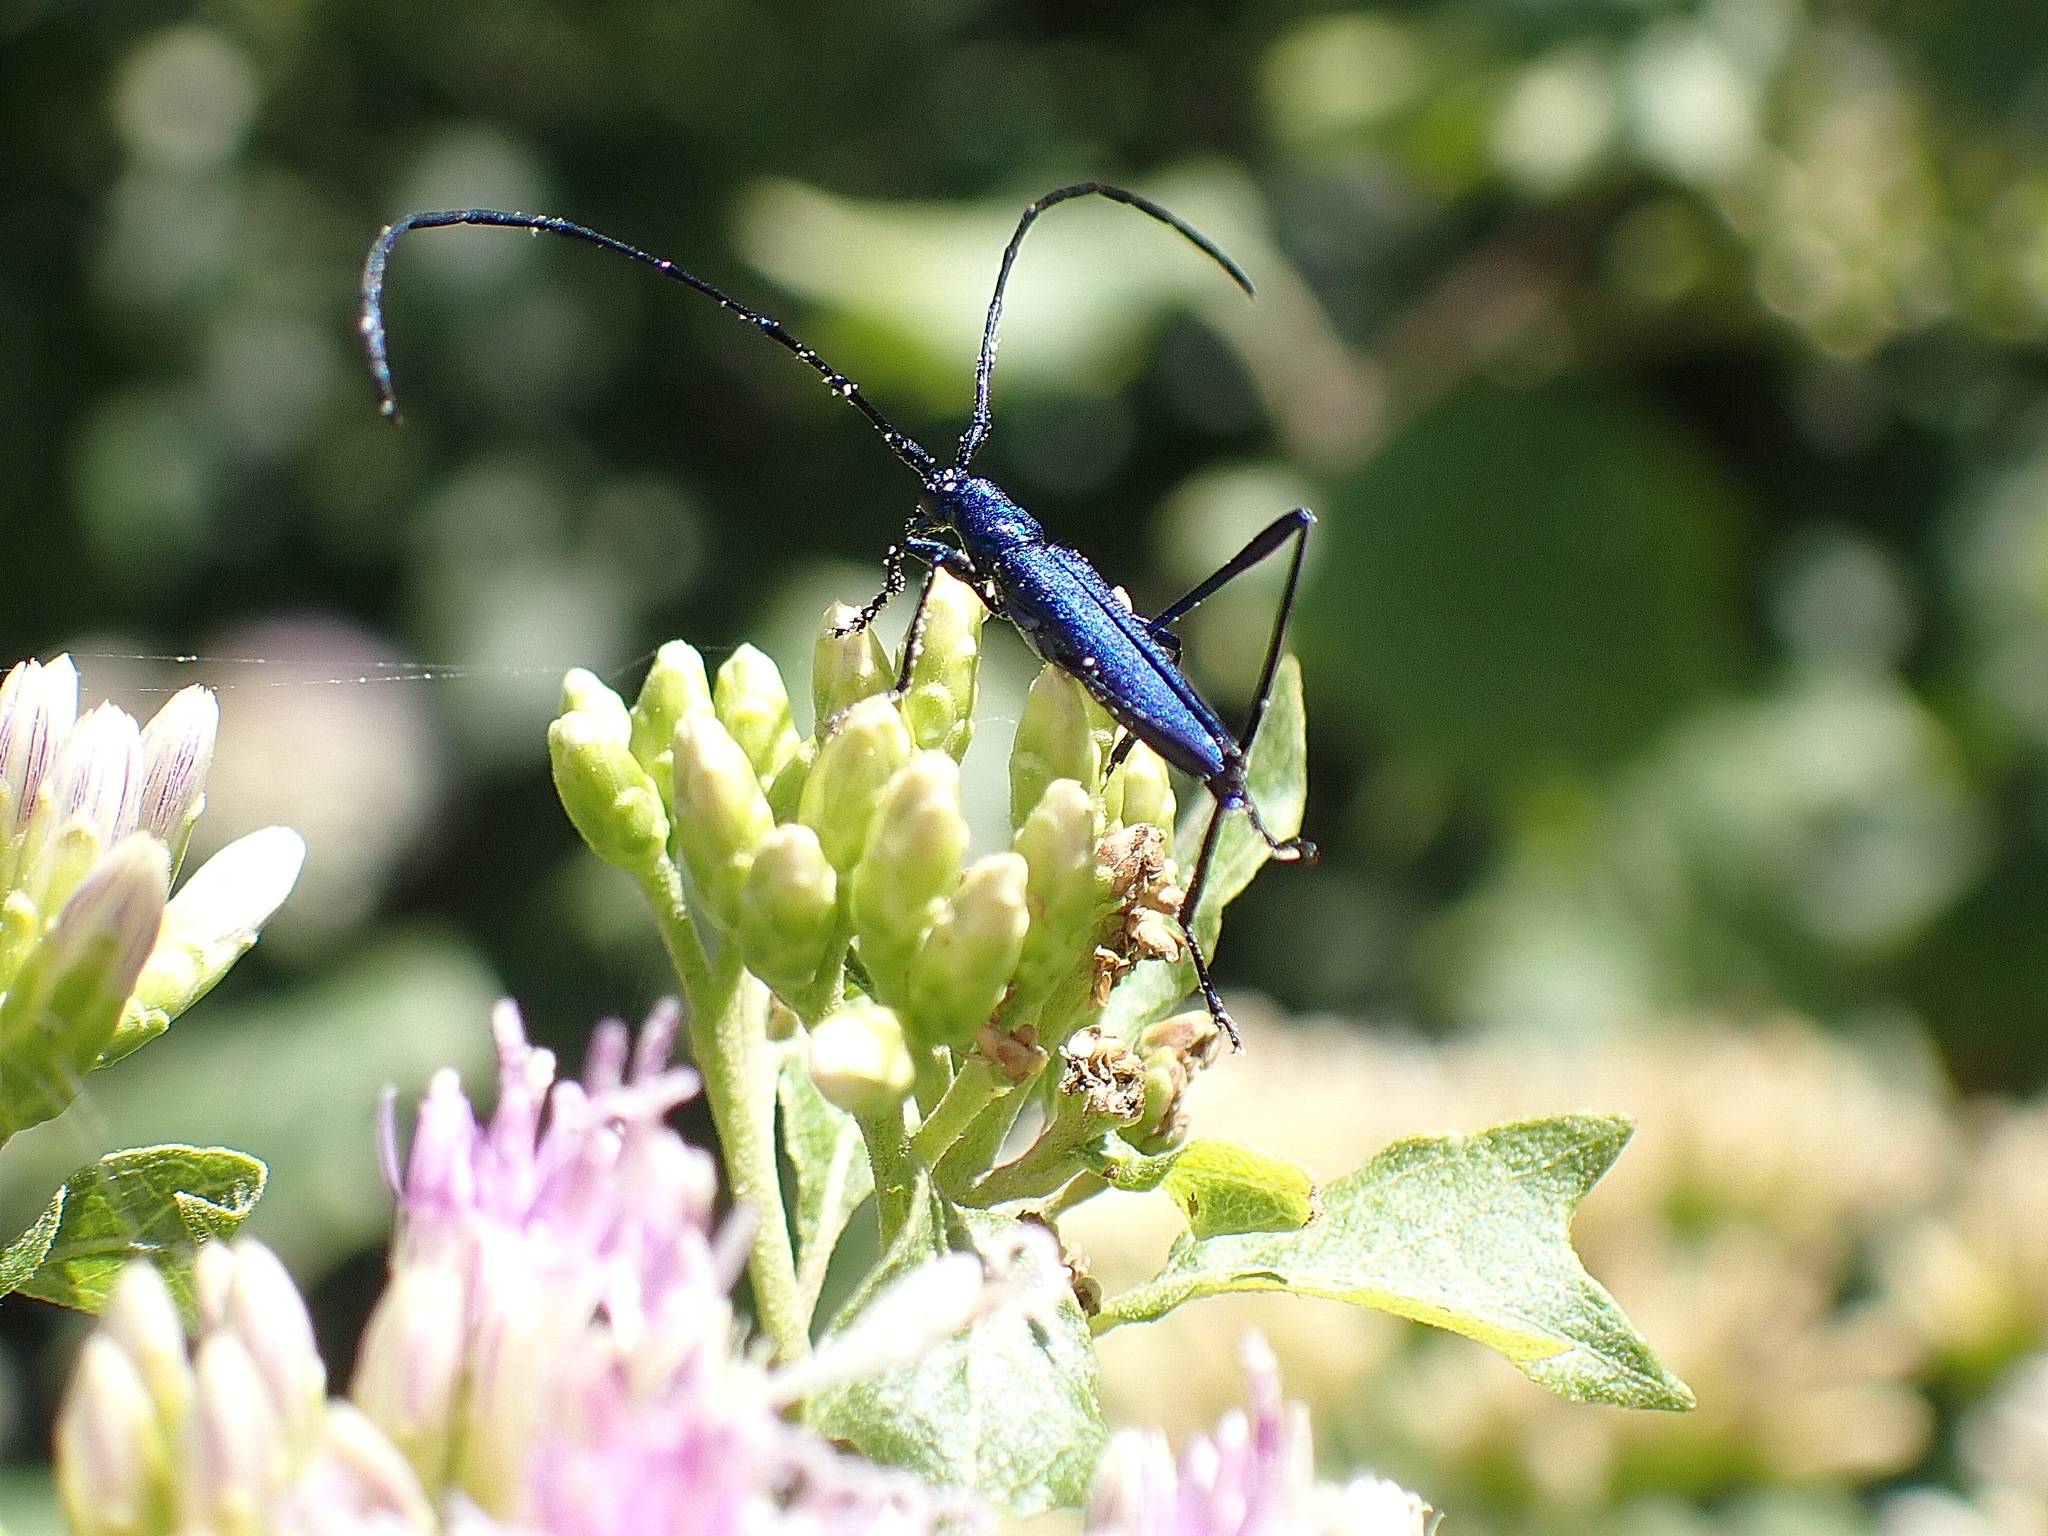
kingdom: Animalia
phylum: Arthropoda
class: Insecta
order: Coleoptera
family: Cerambycidae
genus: Promeces
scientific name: Promeces longipes
